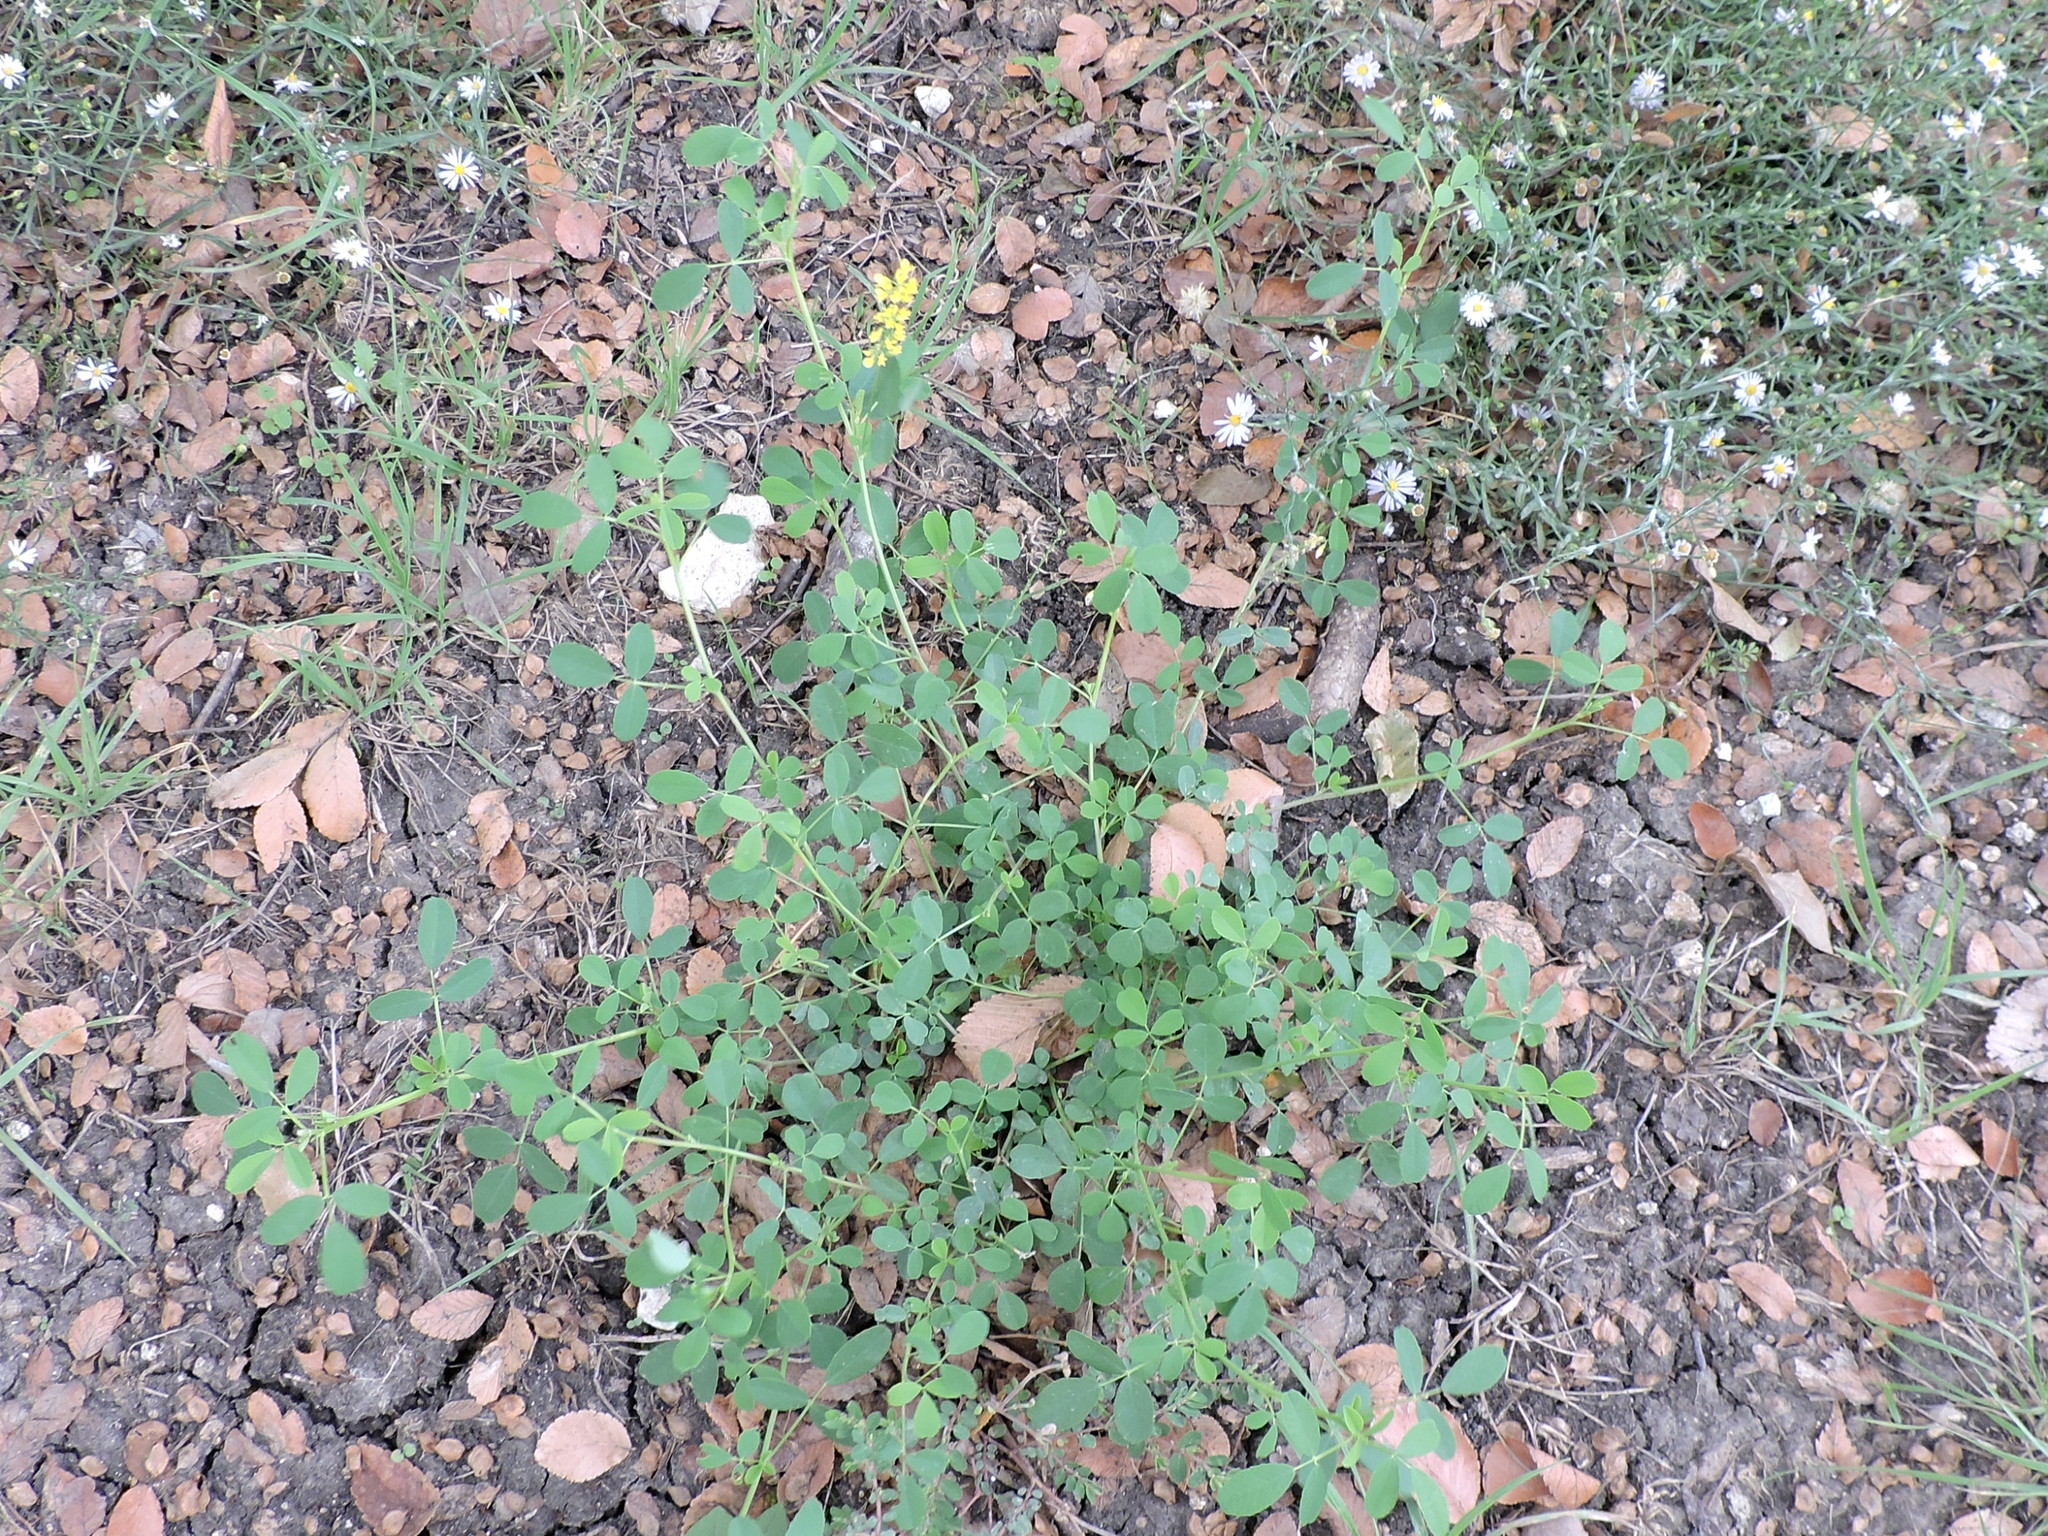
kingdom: Plantae
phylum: Tracheophyta
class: Magnoliopsida
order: Fabales
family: Fabaceae
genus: Melilotus
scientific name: Melilotus officinalis
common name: Sweetclover
